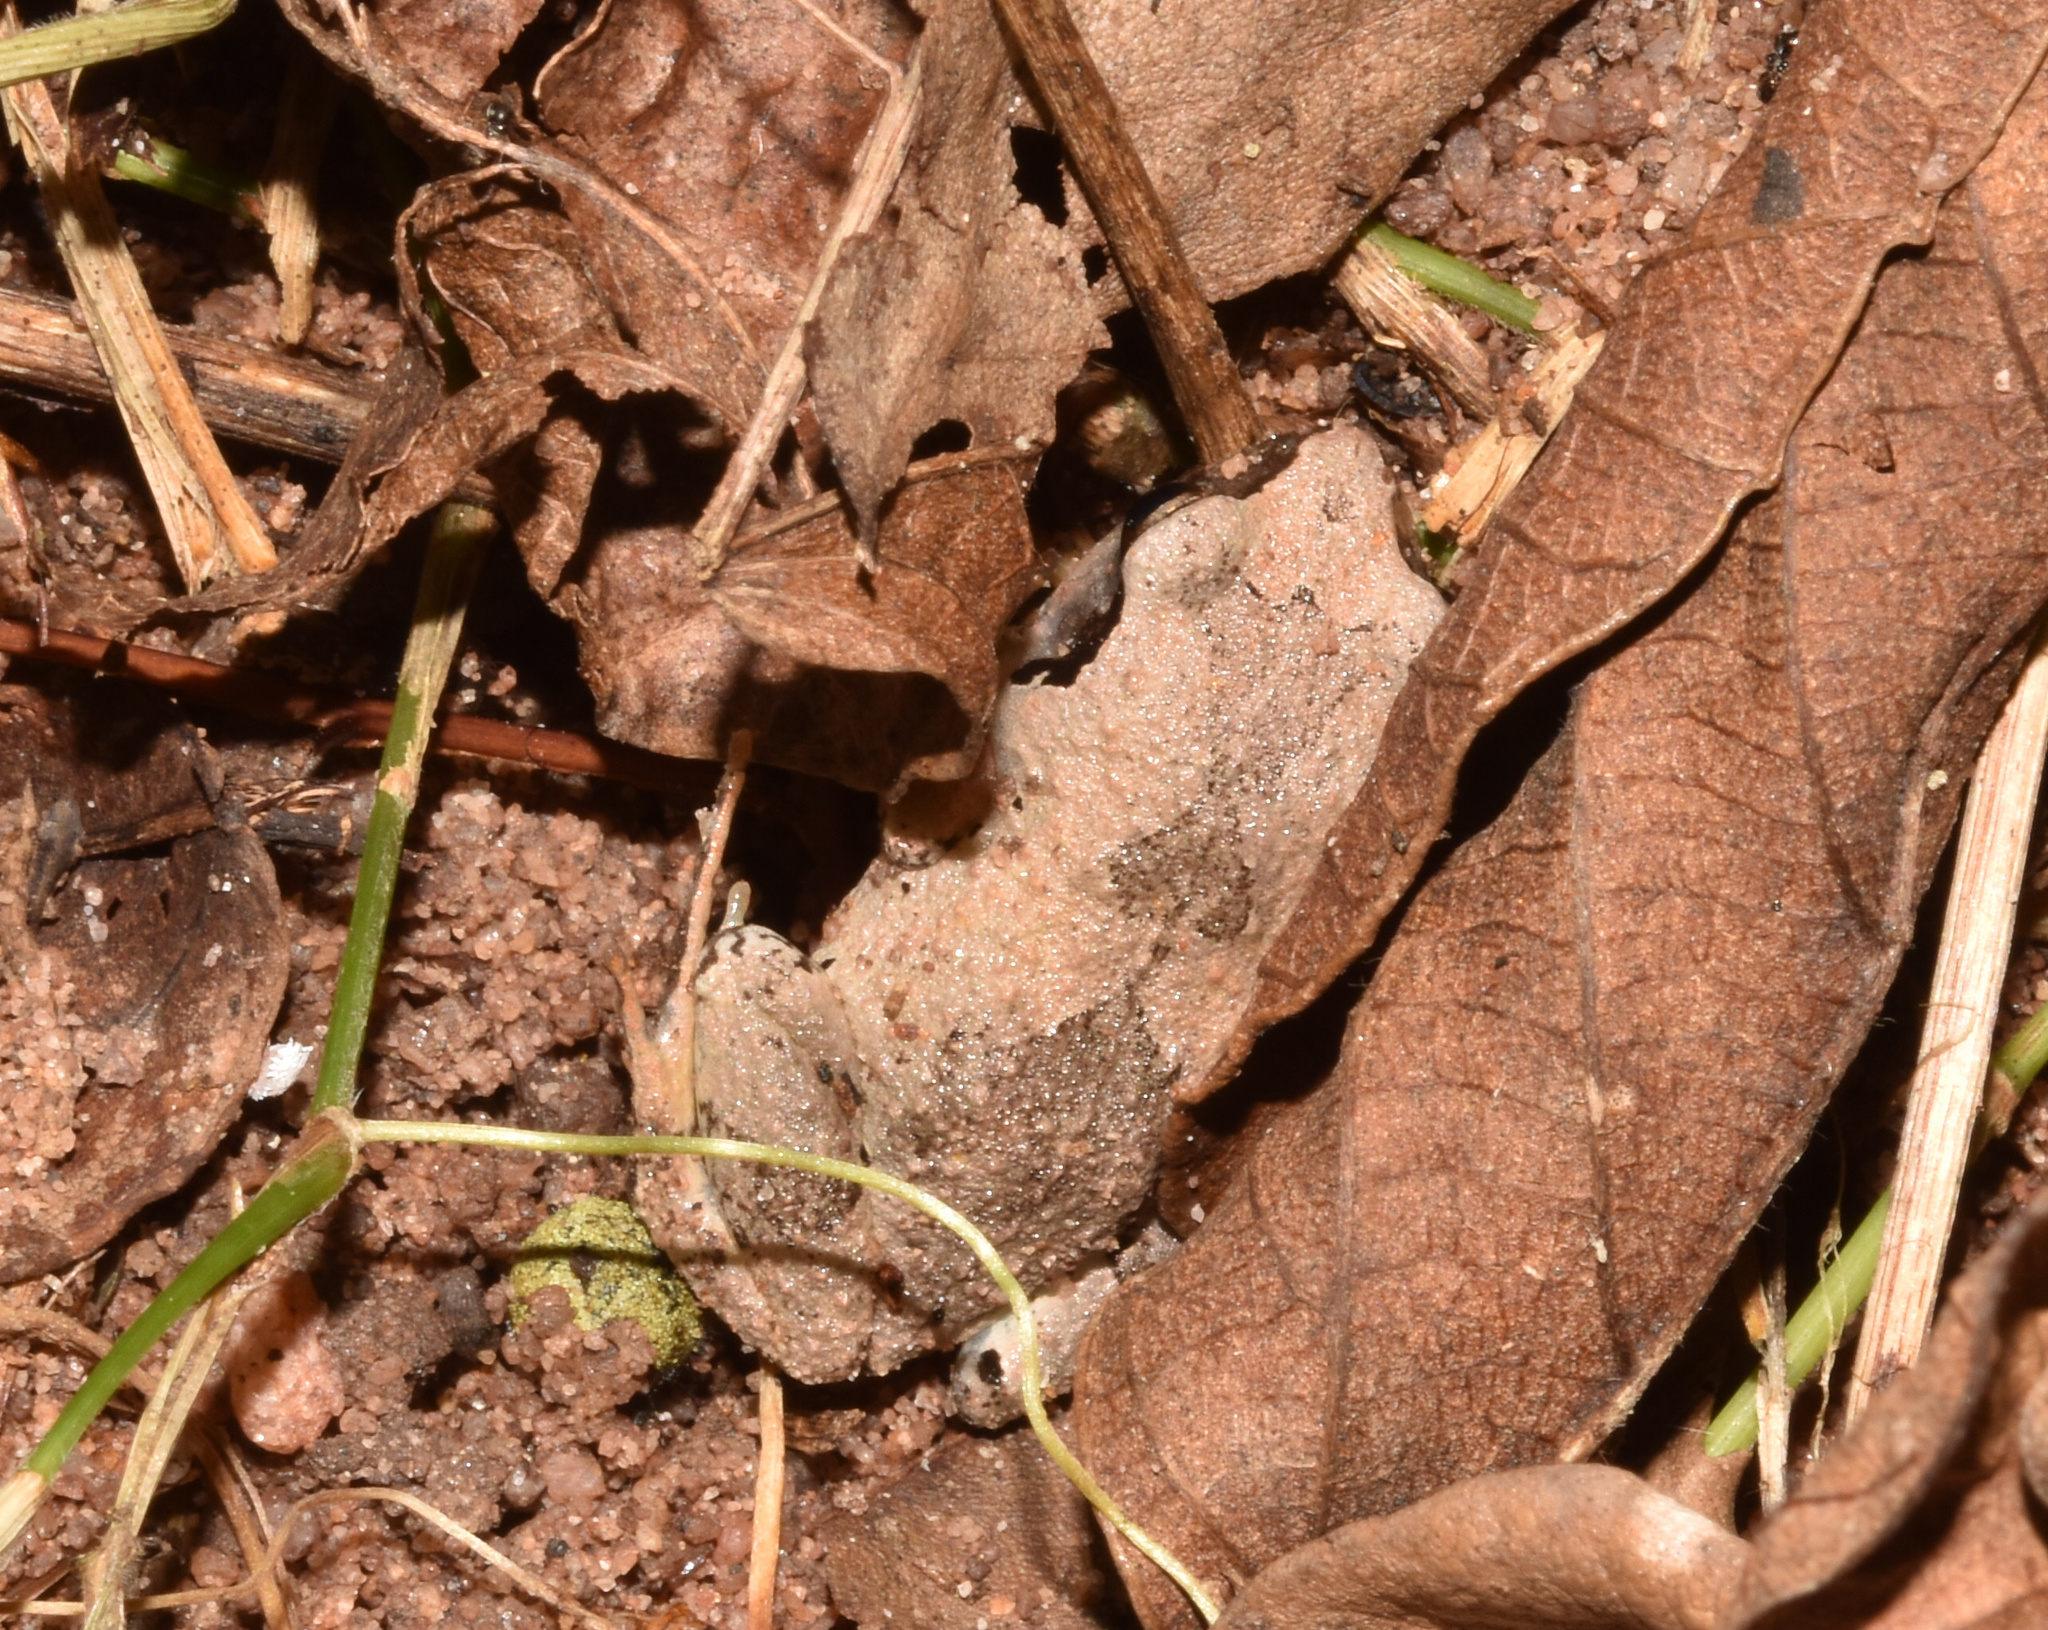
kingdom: Animalia
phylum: Chordata
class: Amphibia
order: Anura
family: Arthroleptidae
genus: Arthroleptis
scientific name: Arthroleptis wahlbergii
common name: Bush squeaker
